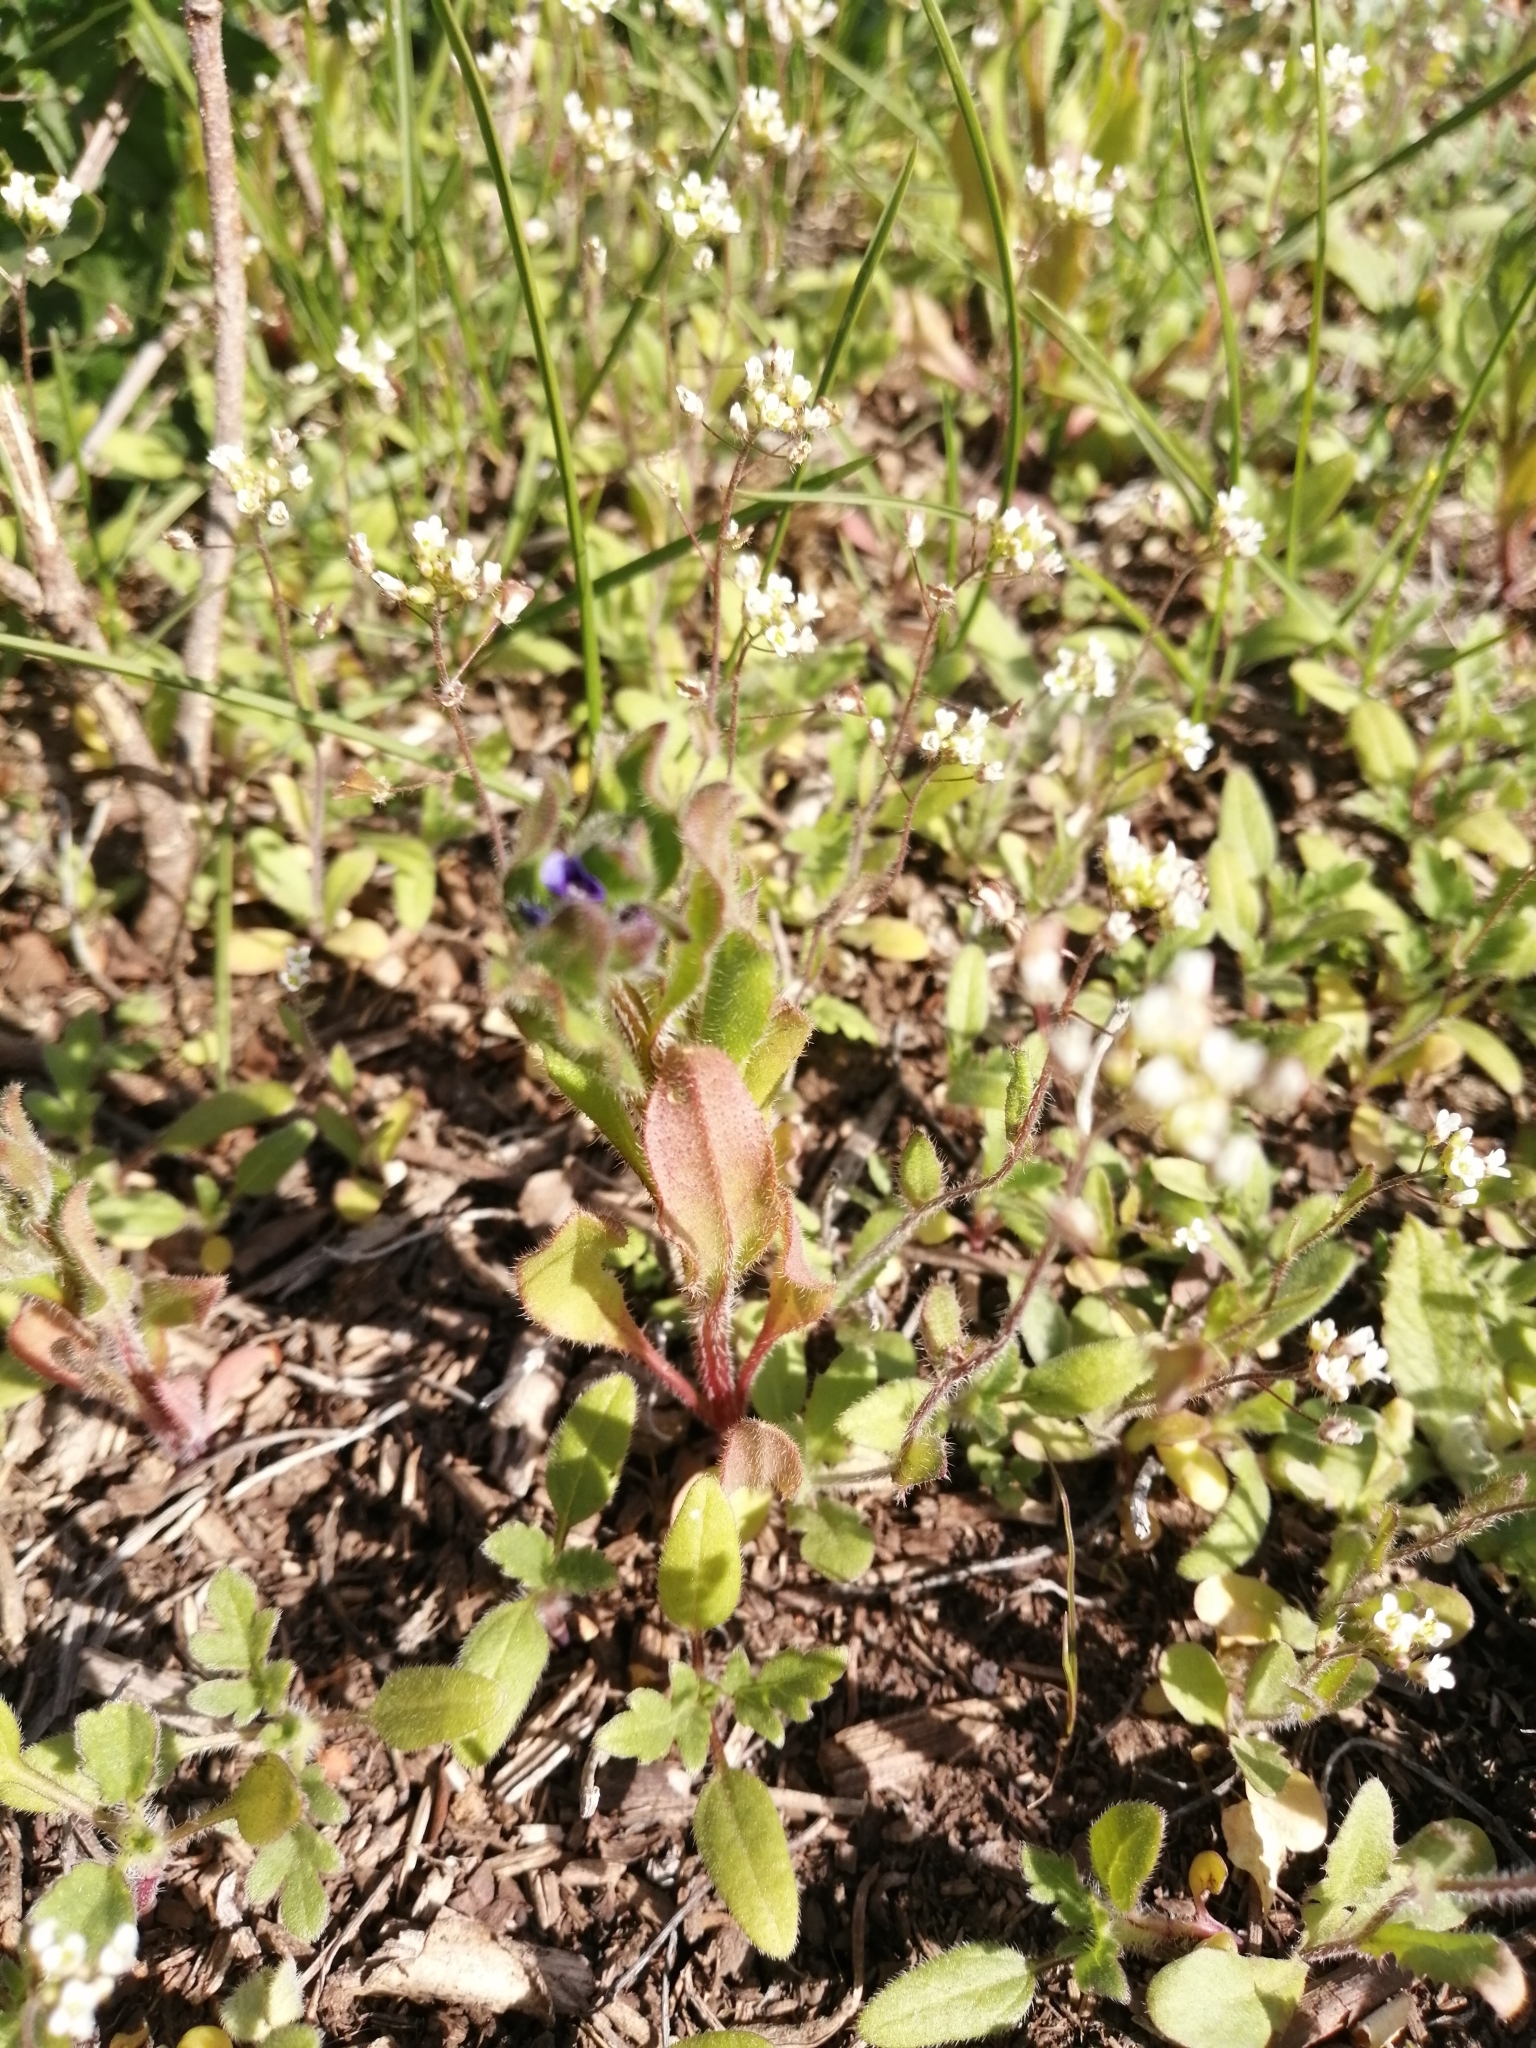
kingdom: Plantae
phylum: Tracheophyta
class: Magnoliopsida
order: Boraginales
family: Boraginaceae
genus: Asperugo
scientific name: Asperugo procumbens
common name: Madwort
